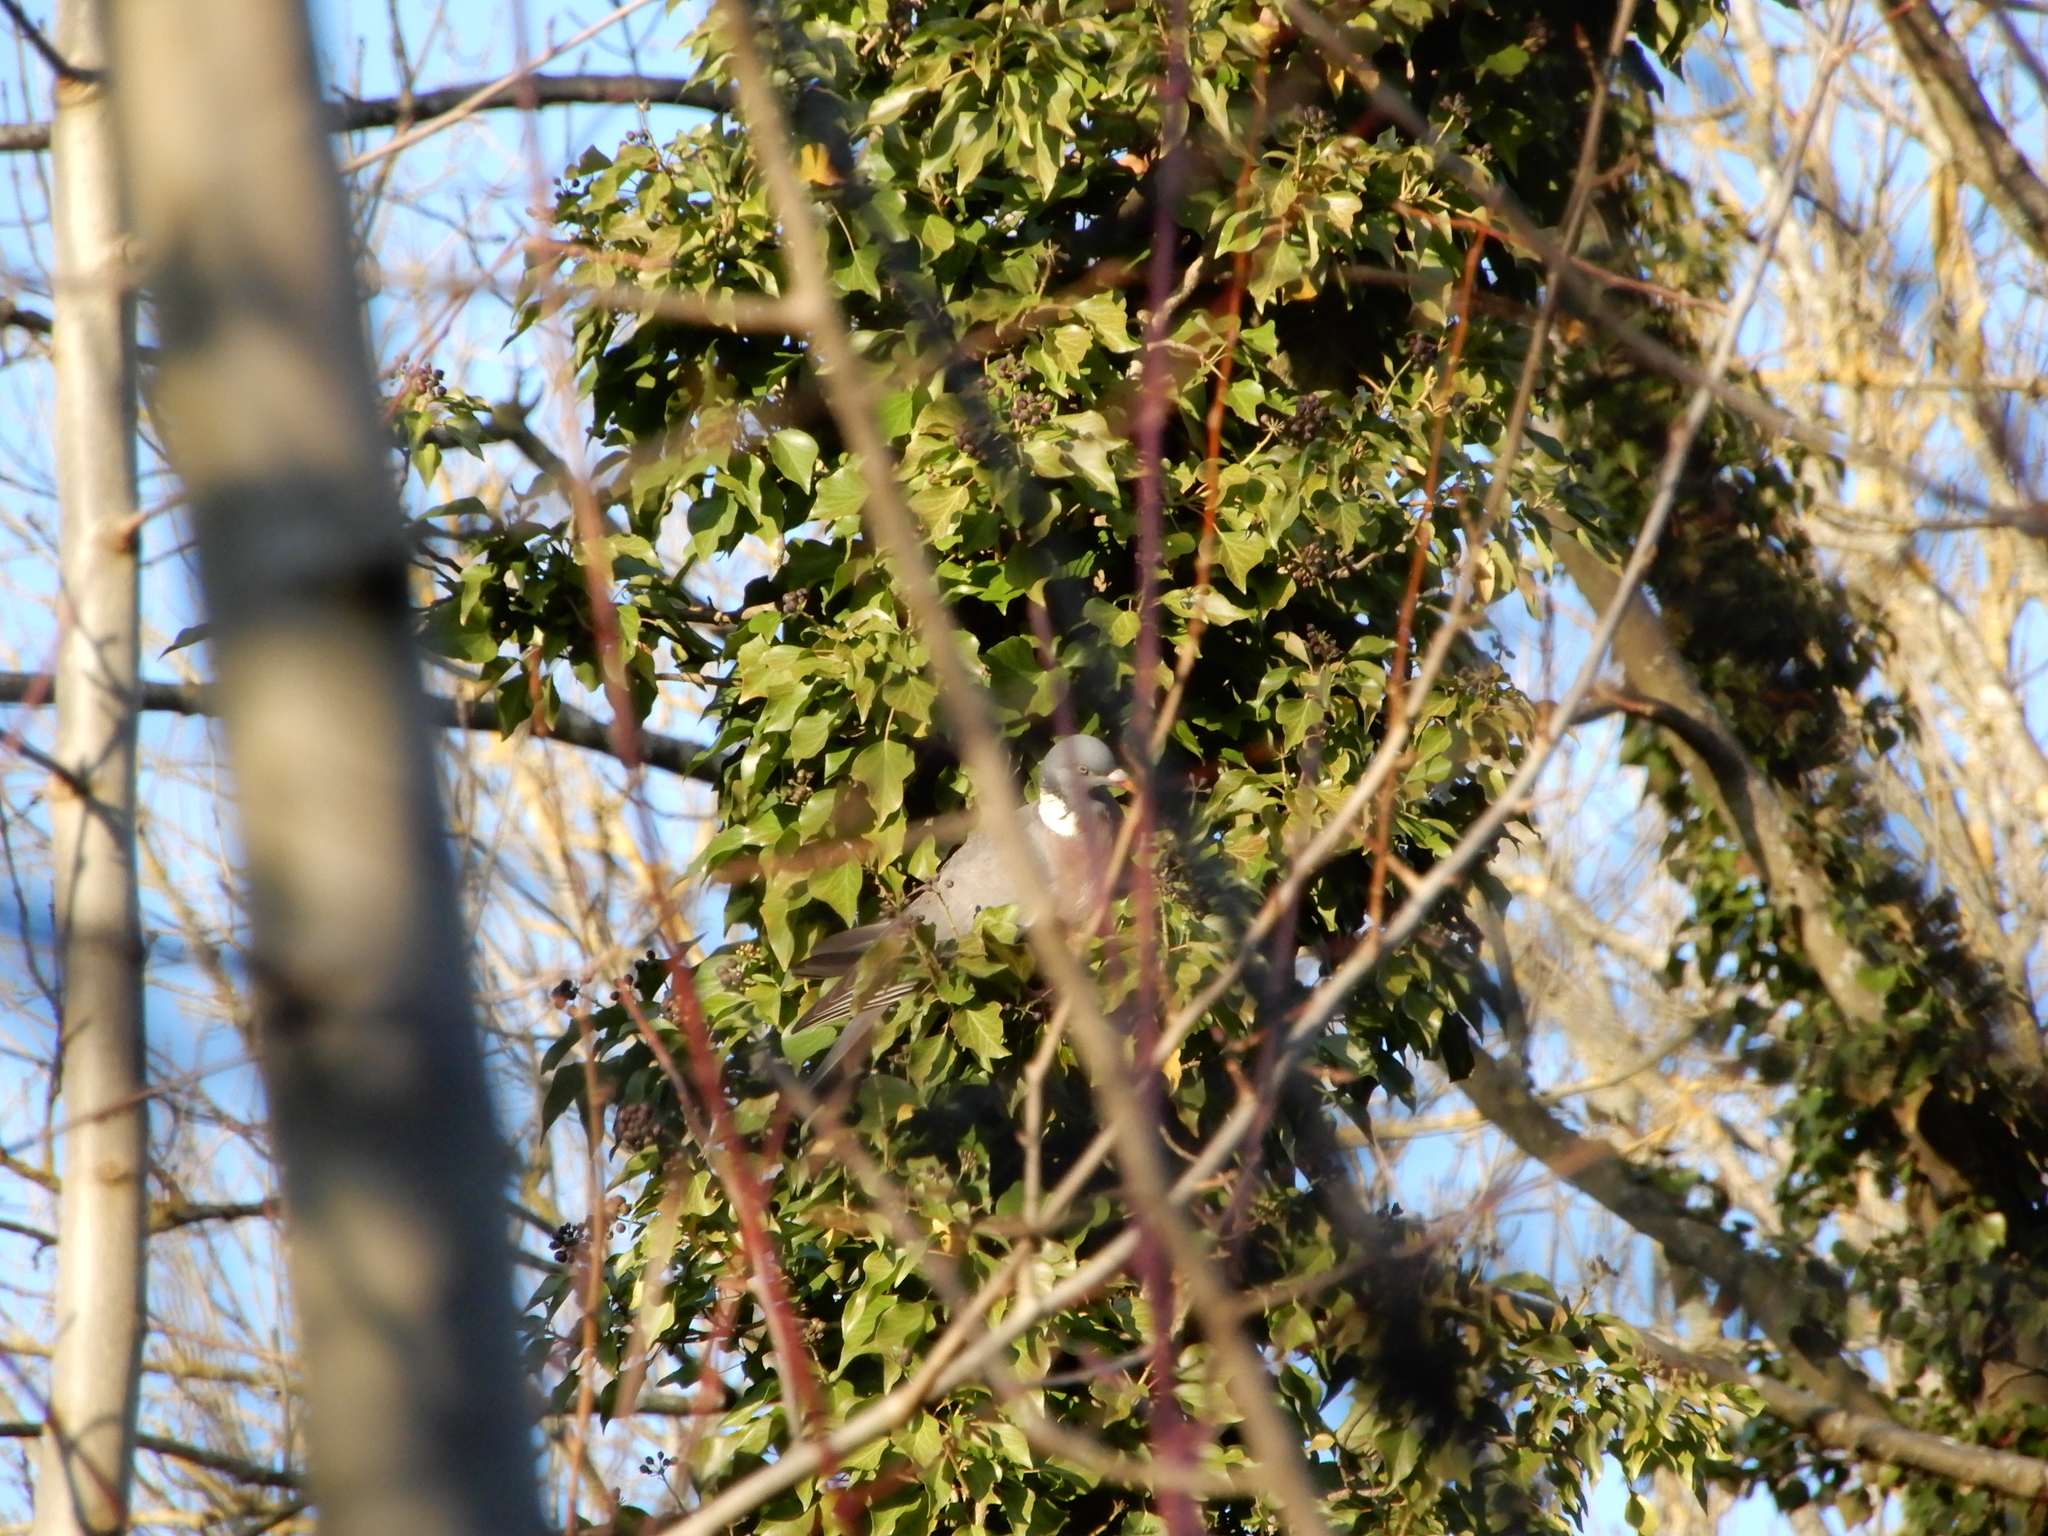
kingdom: Animalia
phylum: Chordata
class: Aves
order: Columbiformes
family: Columbidae
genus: Columba
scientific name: Columba palumbus
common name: Common wood pigeon
